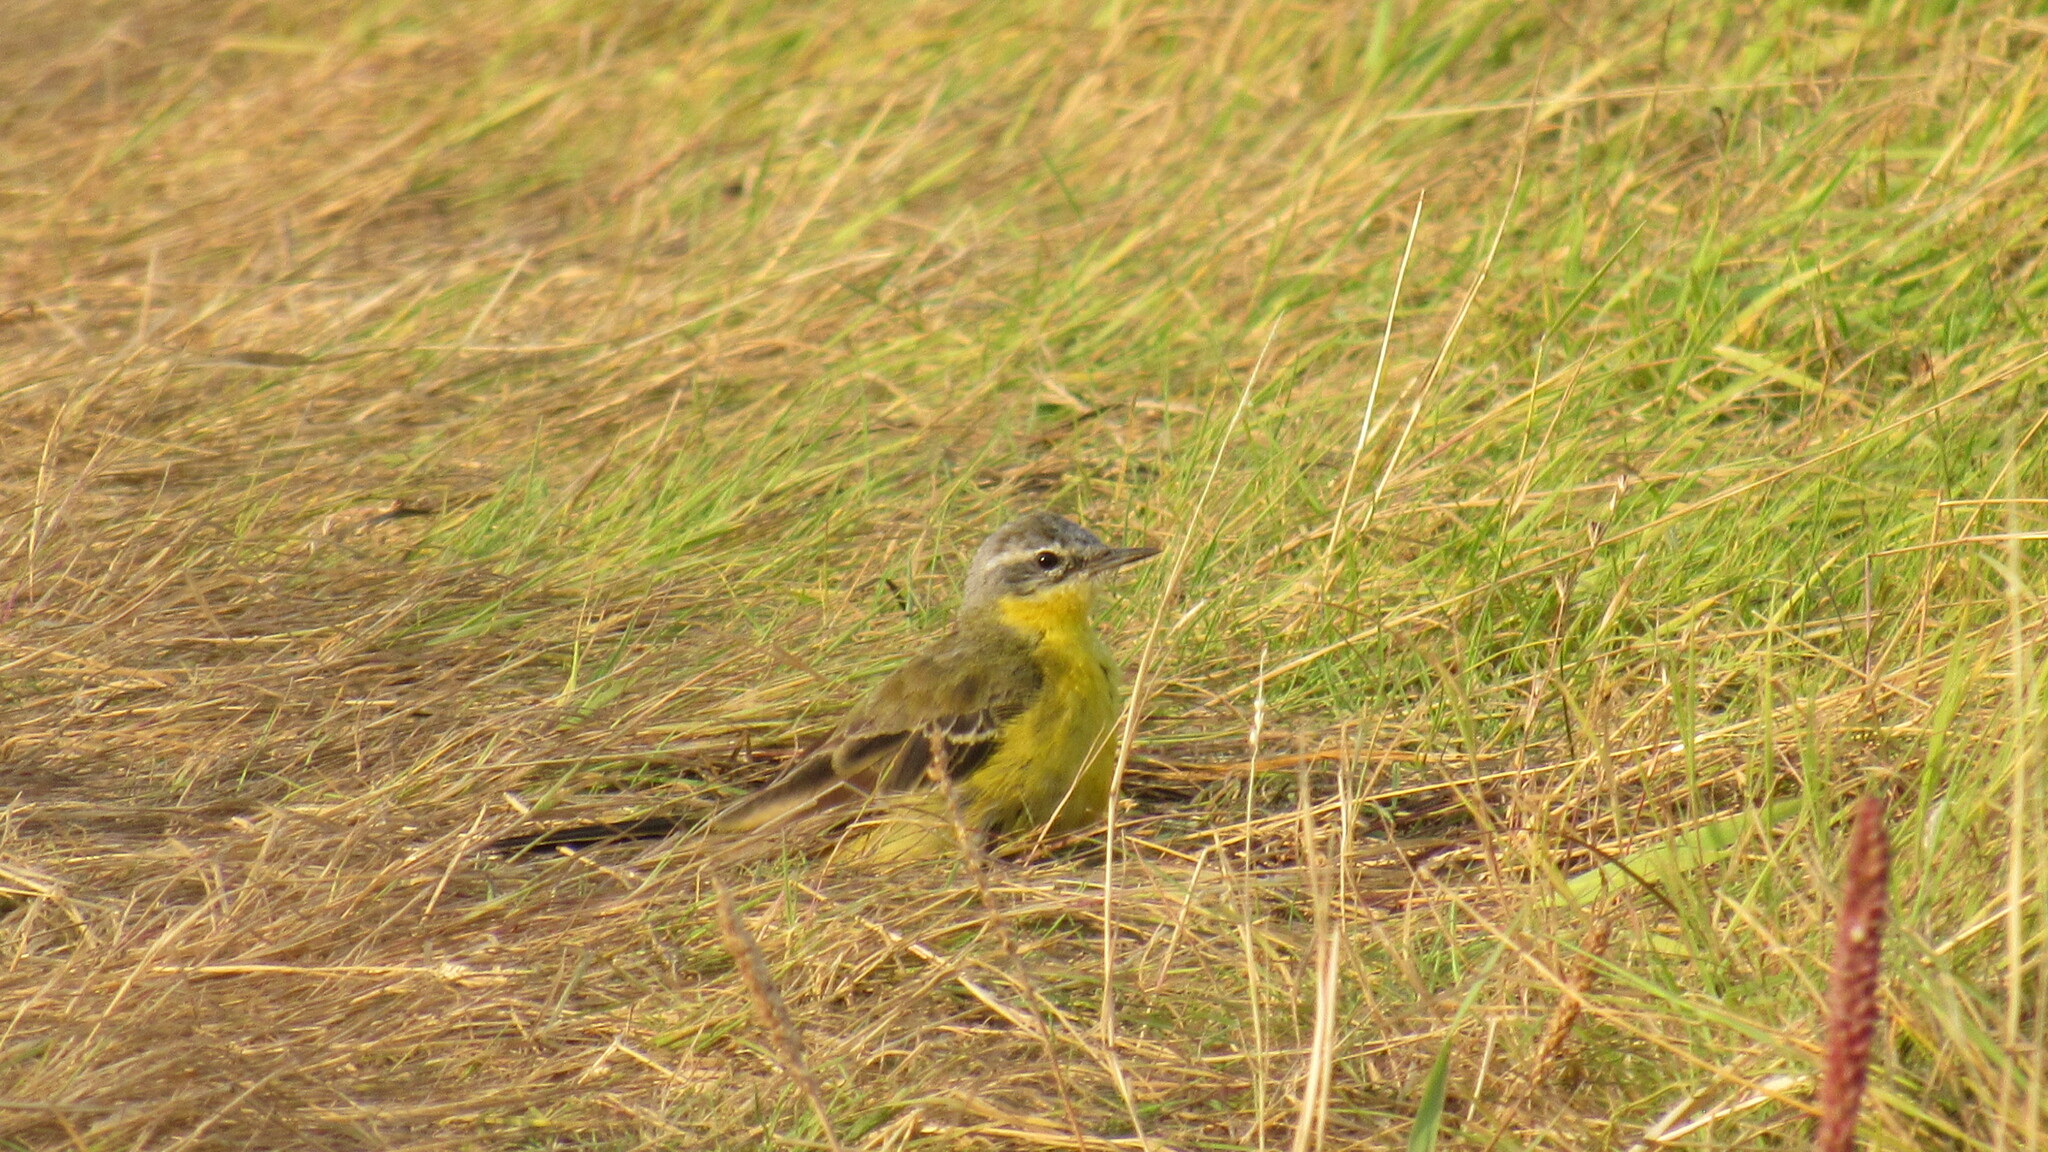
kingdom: Animalia
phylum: Chordata
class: Aves
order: Passeriformes
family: Motacillidae
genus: Motacilla
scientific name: Motacilla flava
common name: Western yellow wagtail
